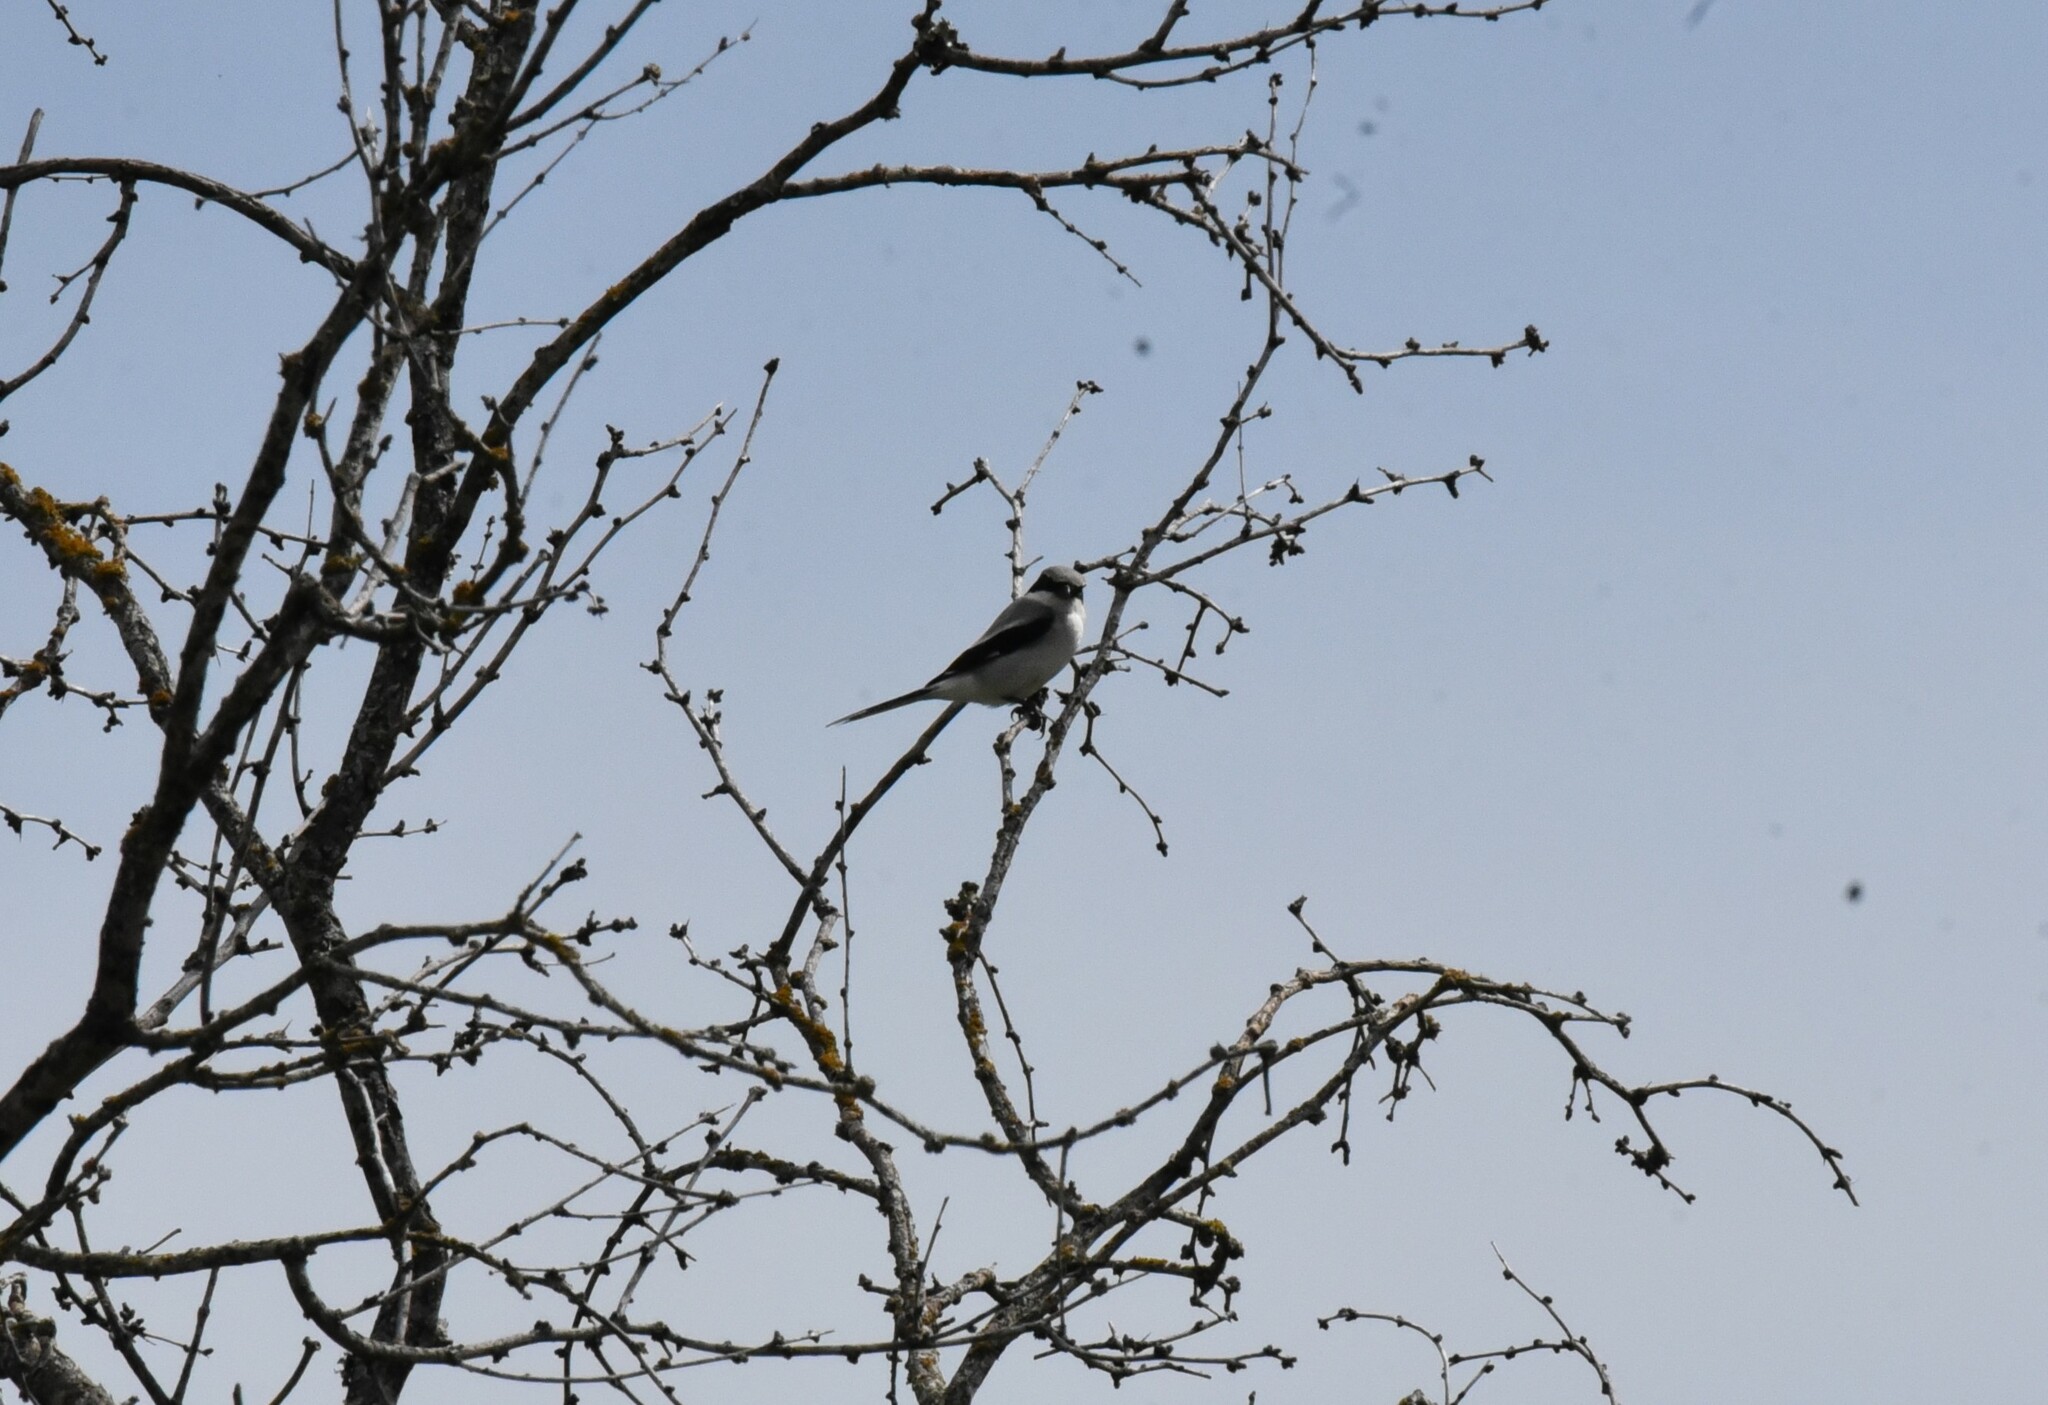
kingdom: Animalia
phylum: Chordata
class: Aves
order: Passeriformes
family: Laniidae
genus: Lanius
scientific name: Lanius ludovicianus
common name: Loggerhead shrike
